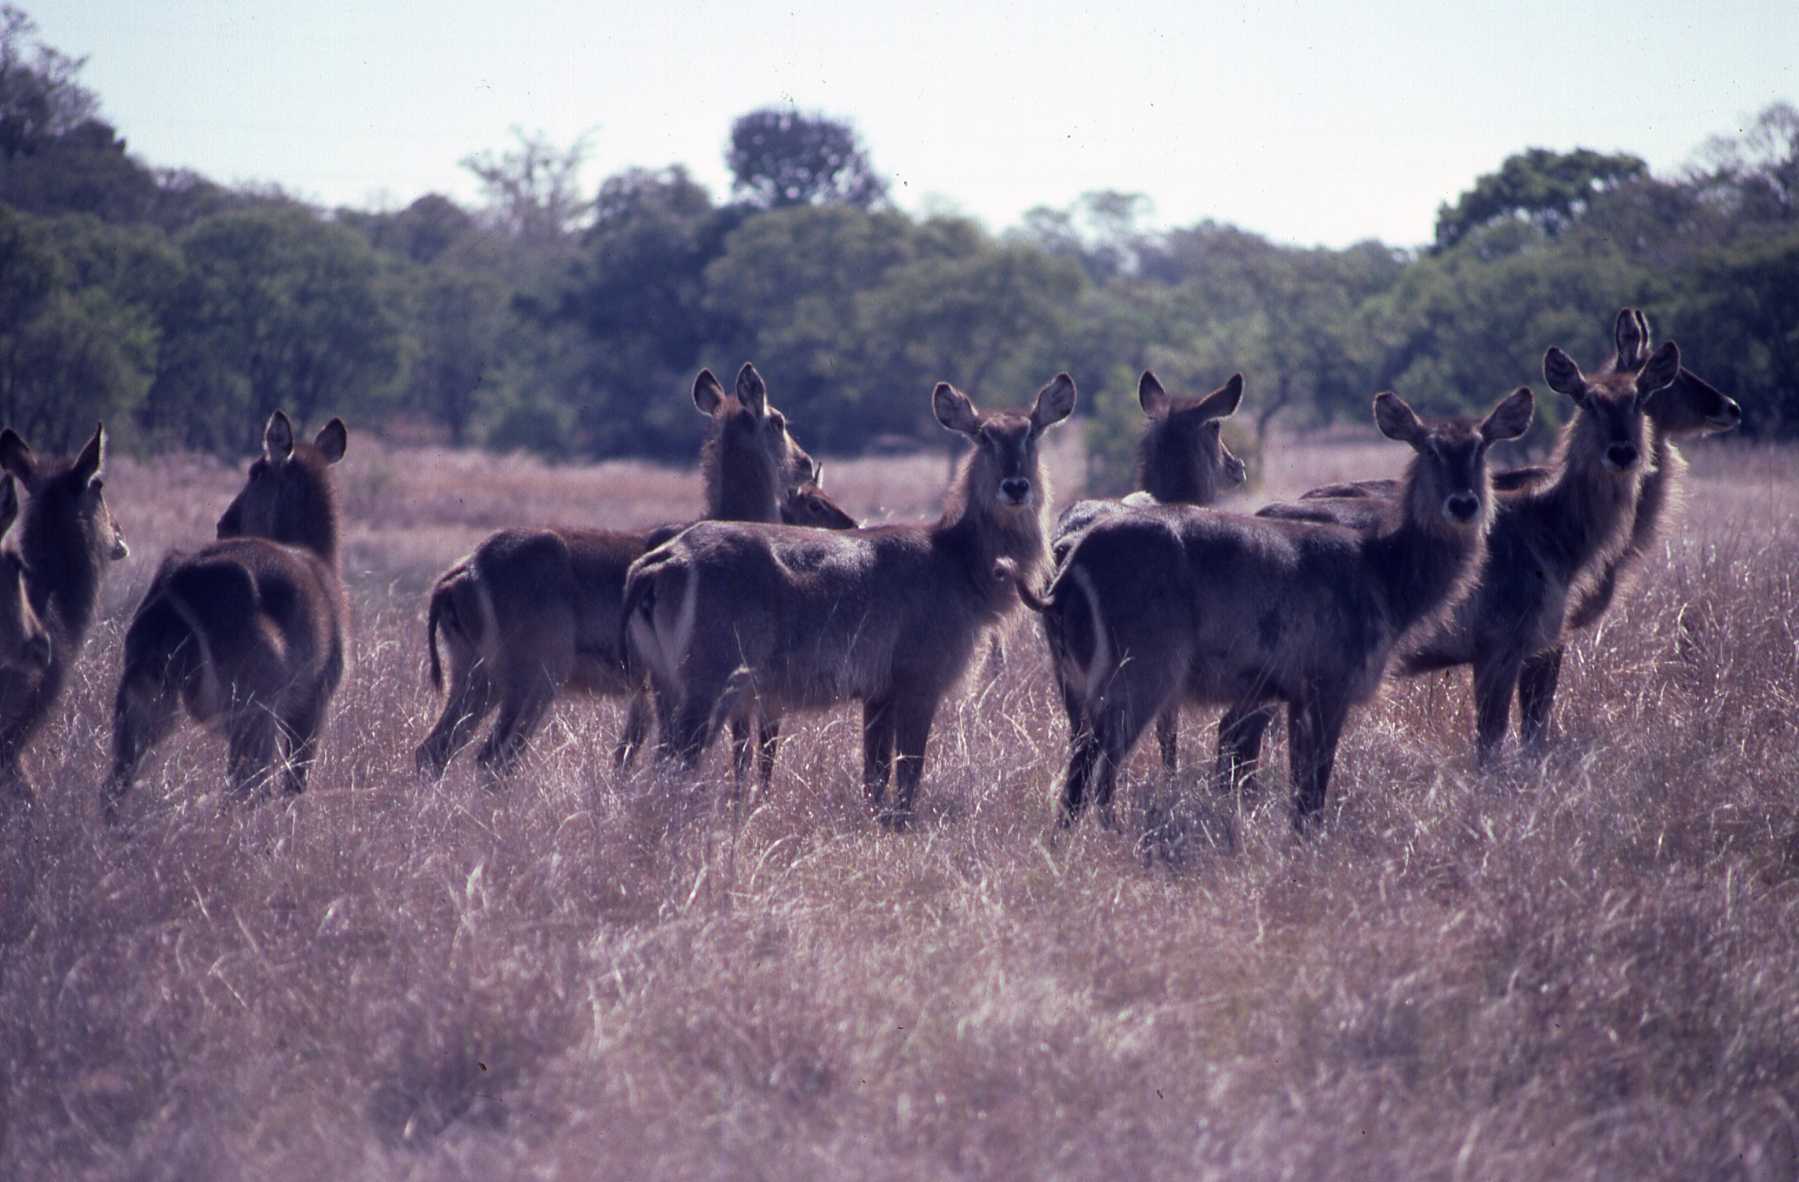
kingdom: Animalia
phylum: Chordata
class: Mammalia
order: Artiodactyla
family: Bovidae
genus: Kobus
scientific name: Kobus ellipsiprymnus
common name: Waterbuck
